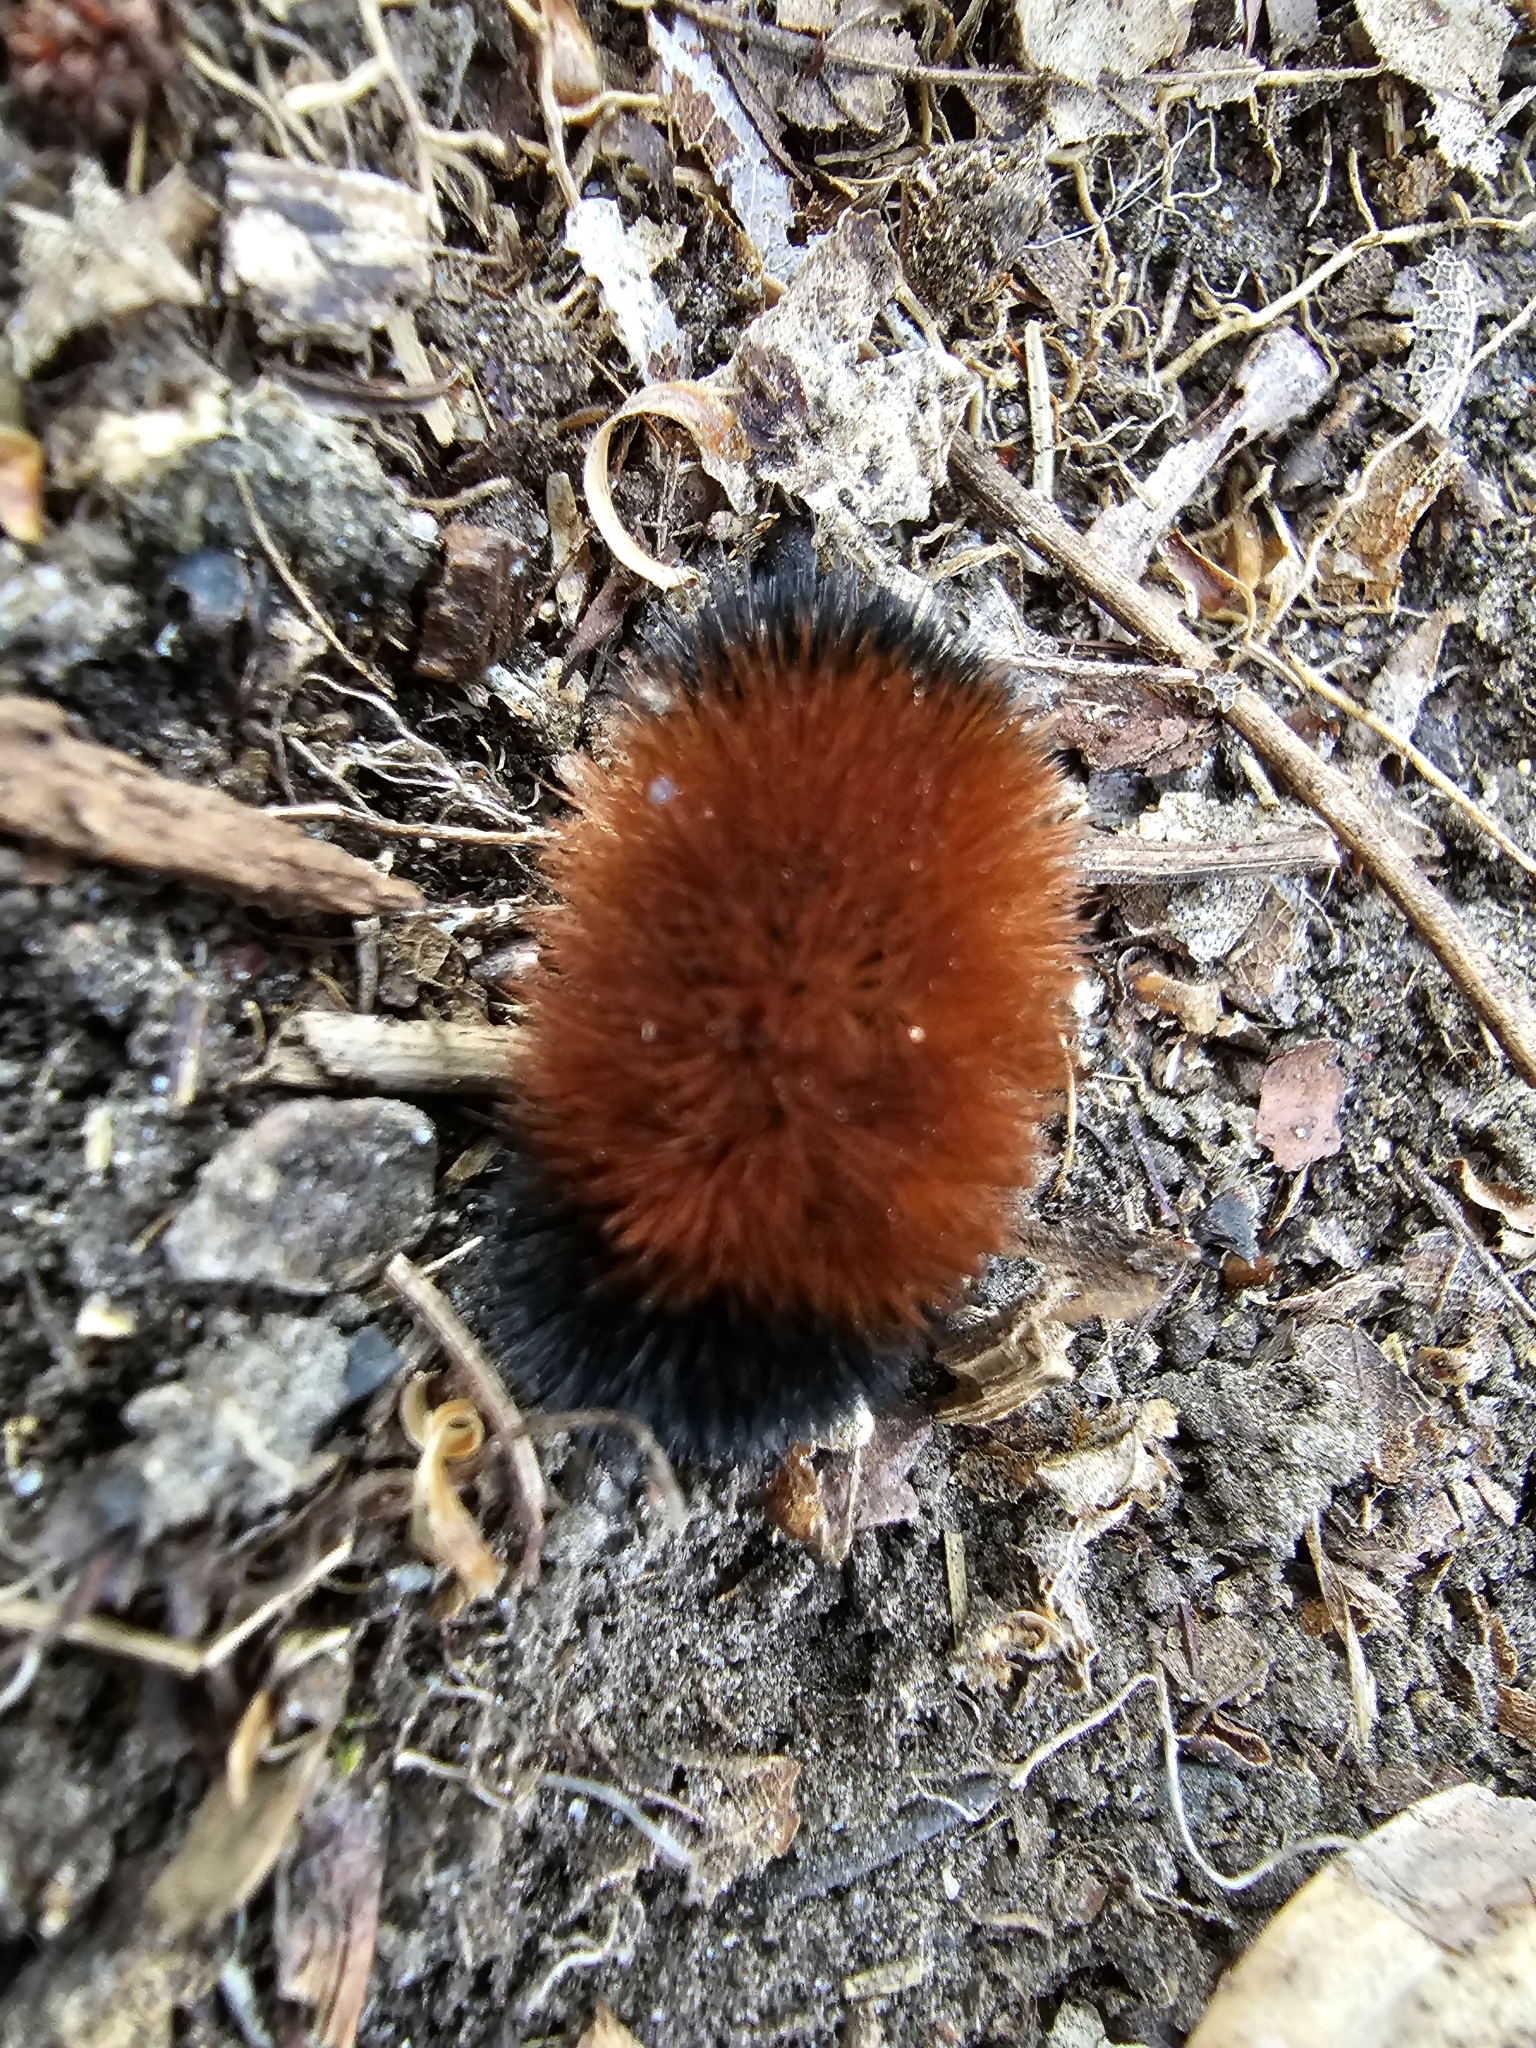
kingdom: Animalia
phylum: Arthropoda
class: Insecta
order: Lepidoptera
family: Erebidae
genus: Pyrrharctia
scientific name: Pyrrharctia isabella
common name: Isabella tiger moth
